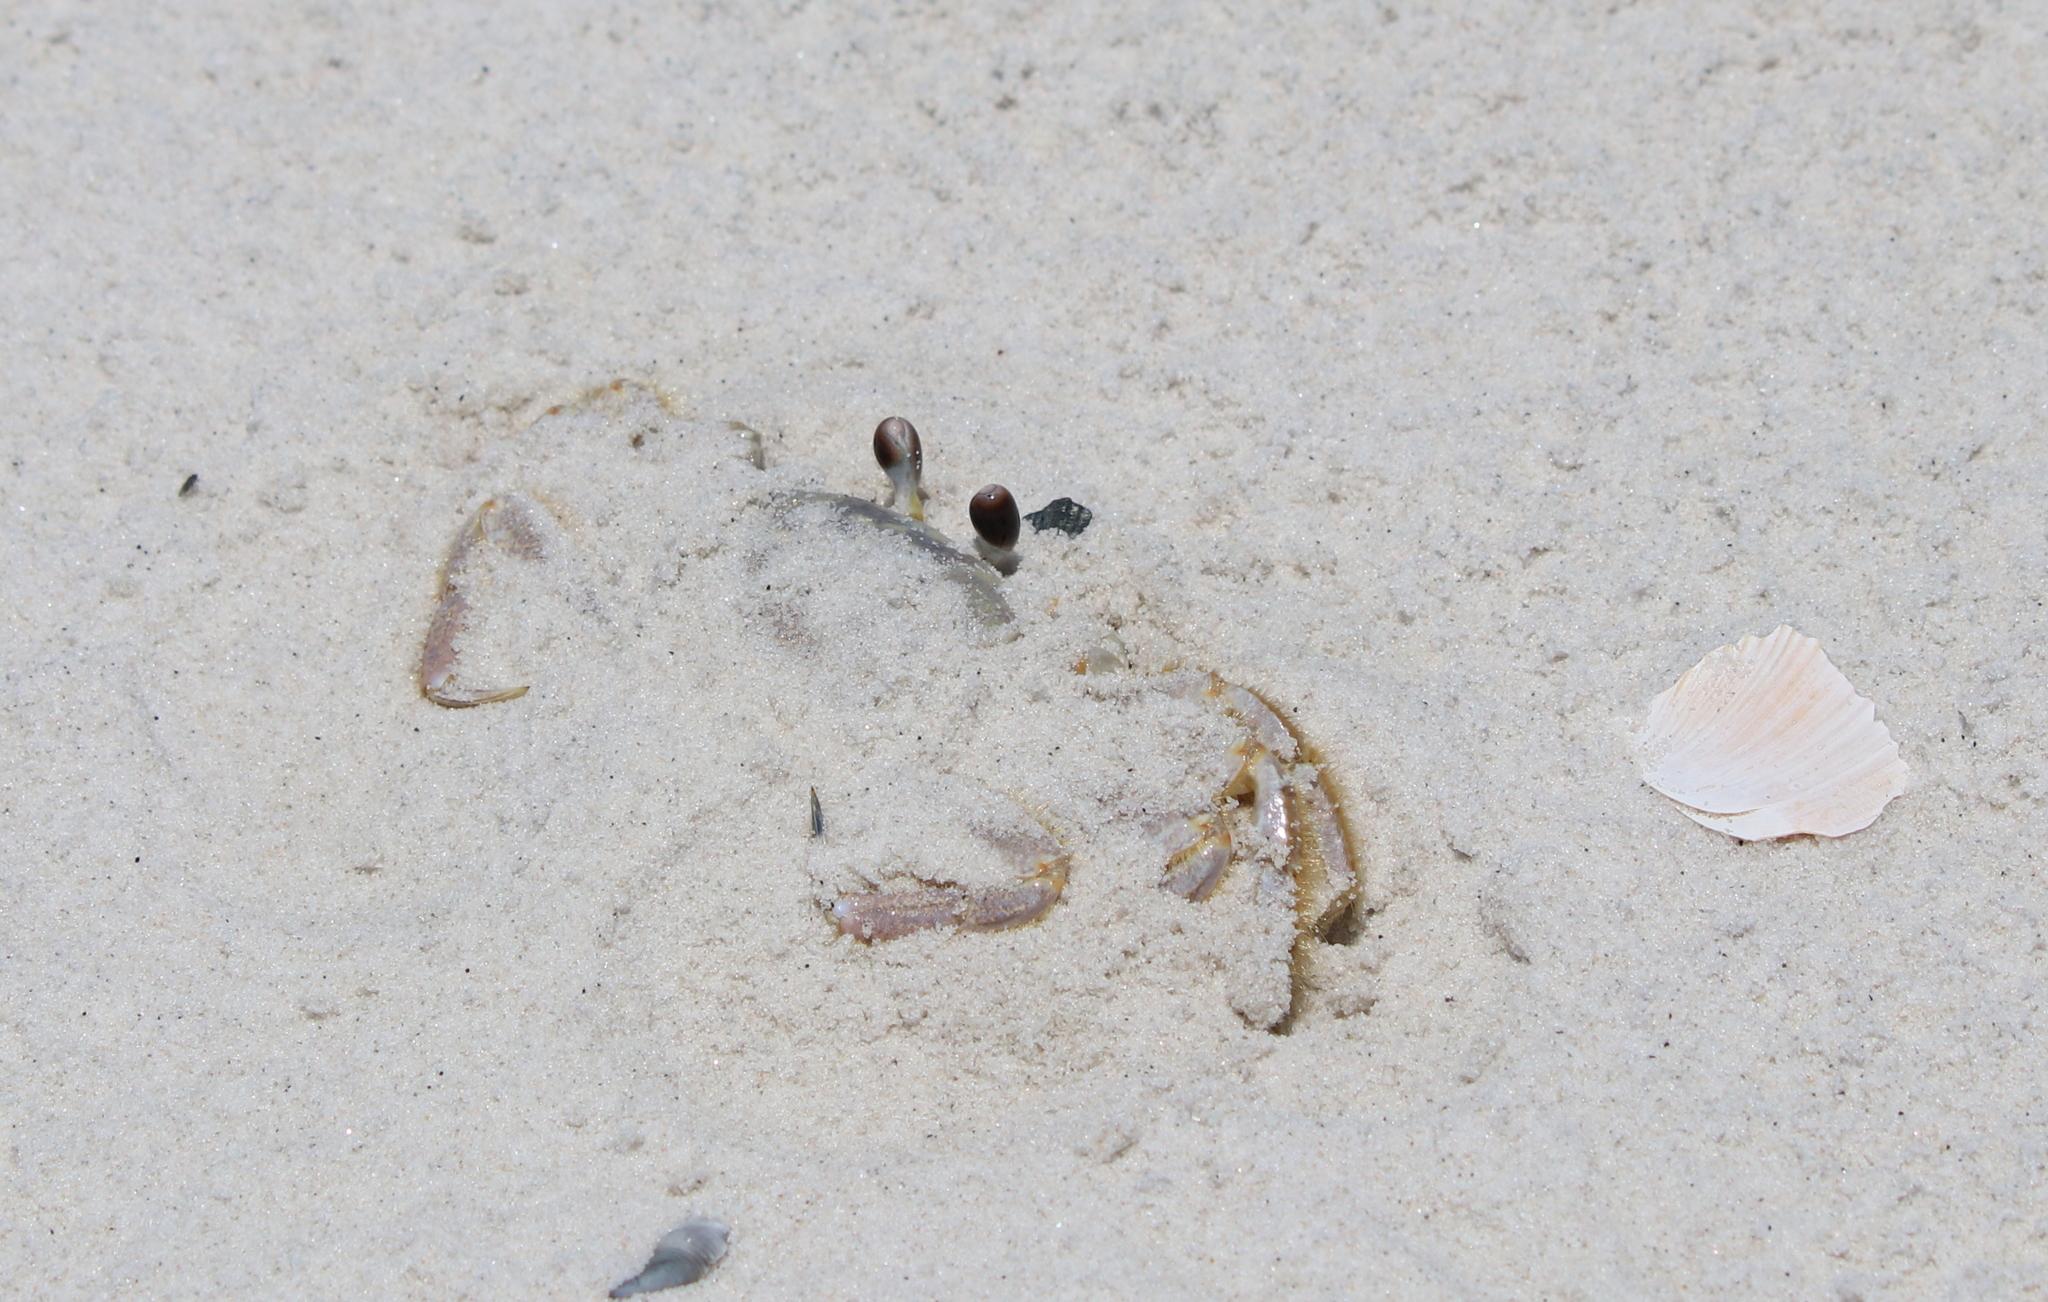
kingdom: Animalia
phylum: Arthropoda
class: Malacostraca
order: Decapoda
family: Ocypodidae
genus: Ocypode
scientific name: Ocypode quadrata
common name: Ghost crab
